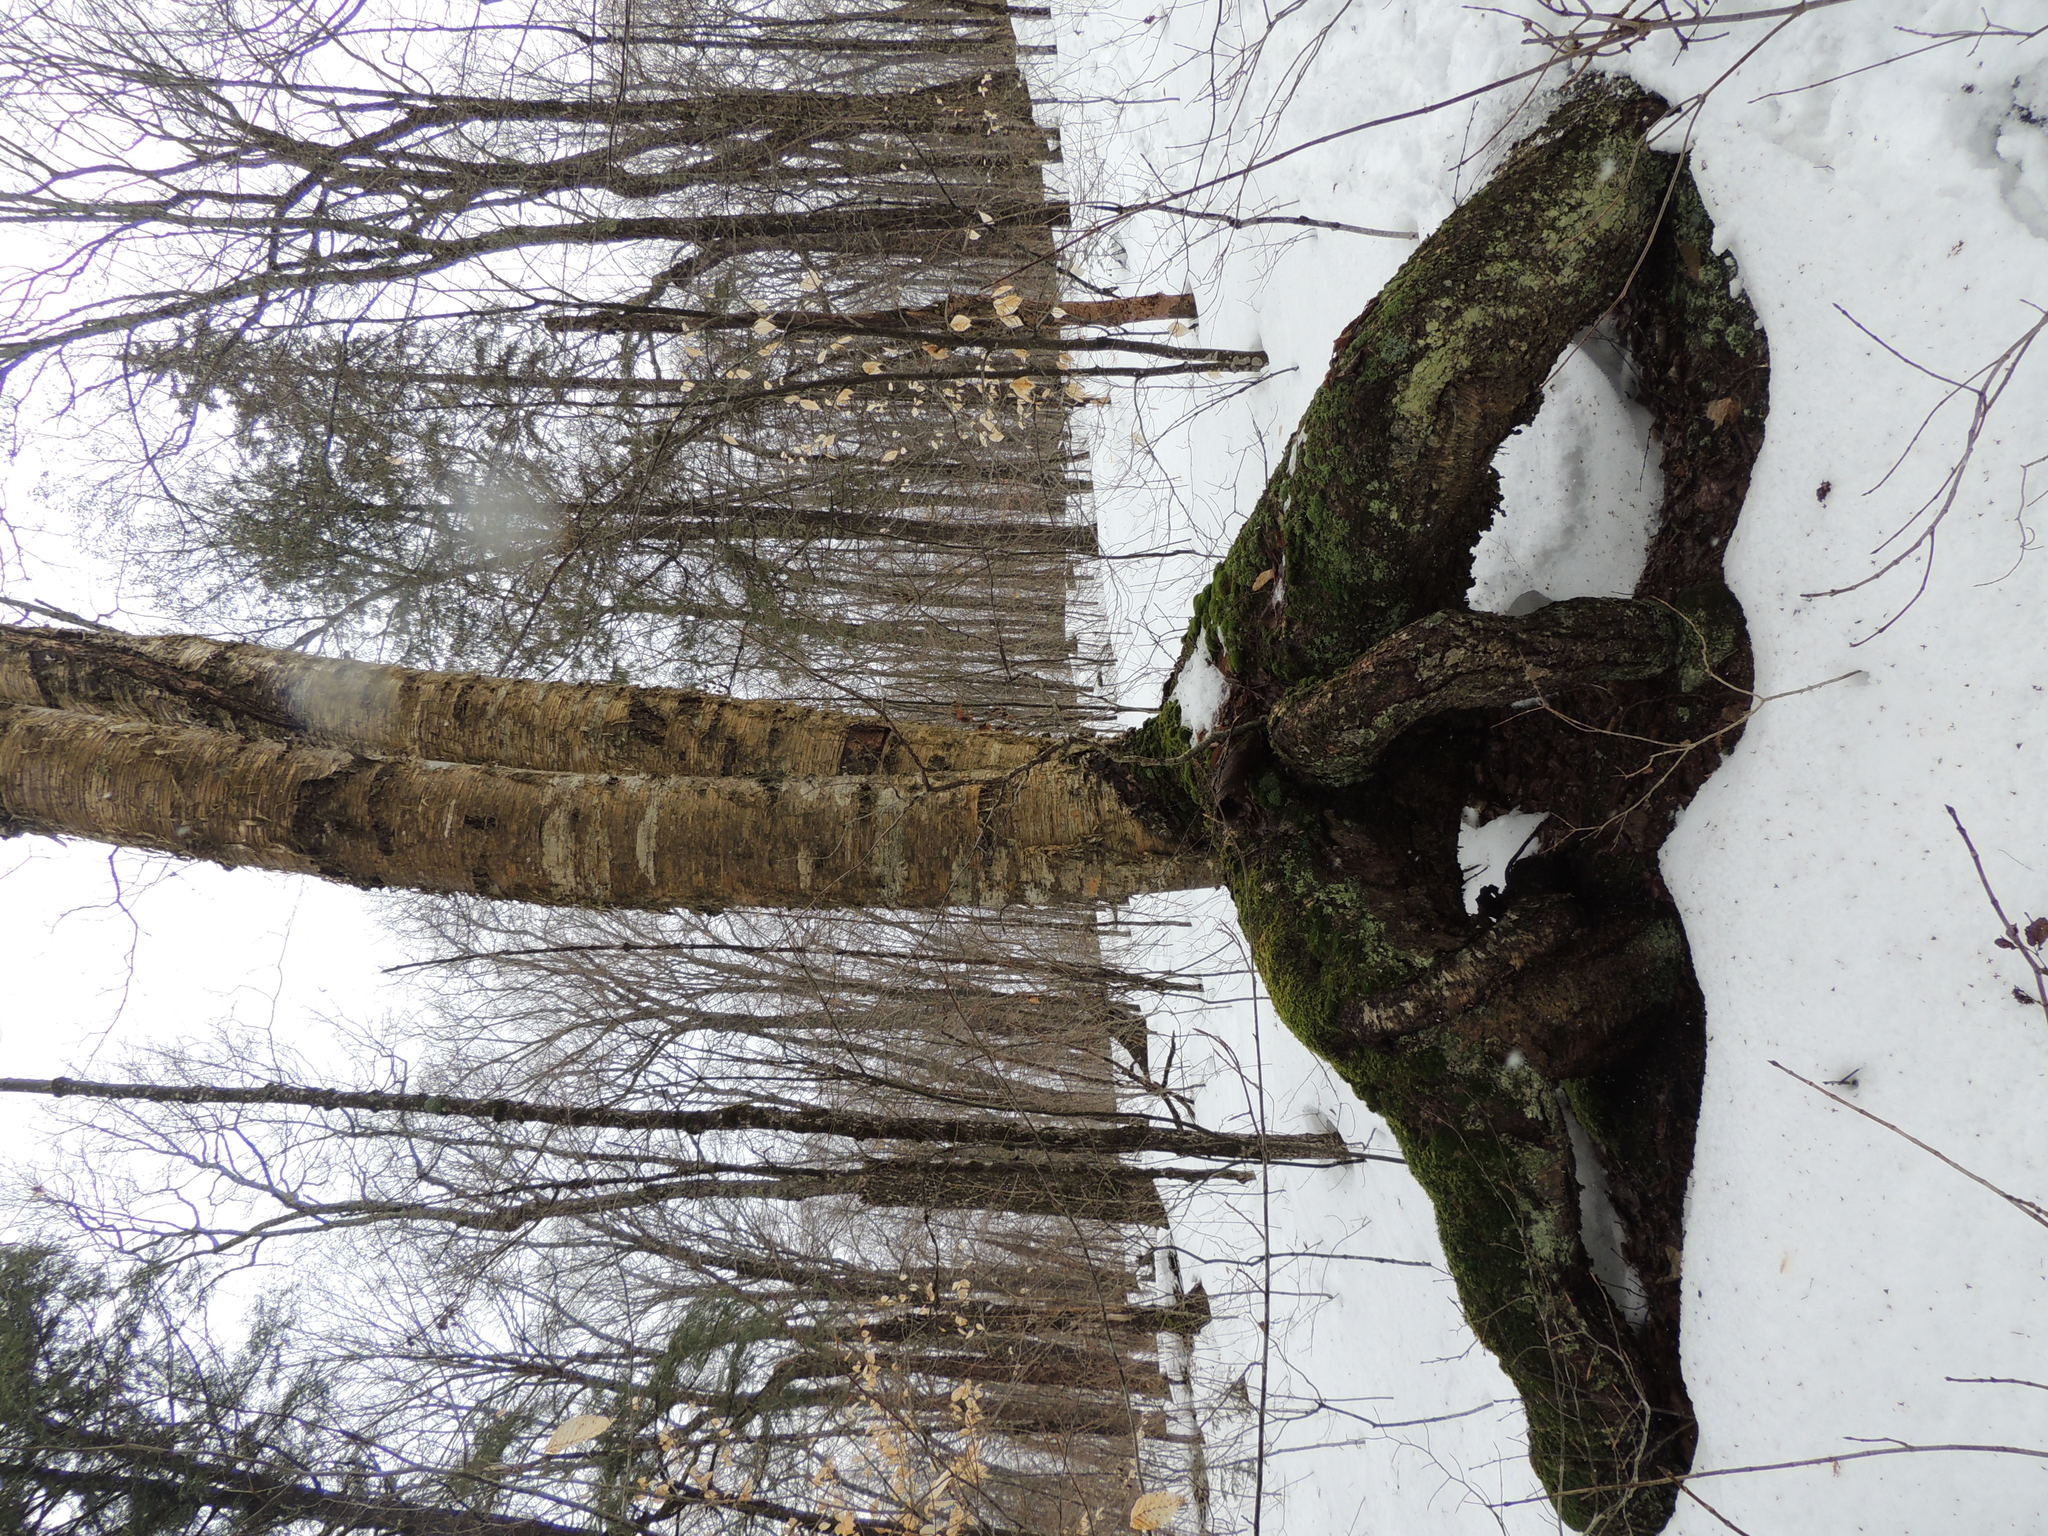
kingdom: Plantae
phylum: Tracheophyta
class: Magnoliopsida
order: Fagales
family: Betulaceae
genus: Betula
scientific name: Betula alleghaniensis
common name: Yellow birch
